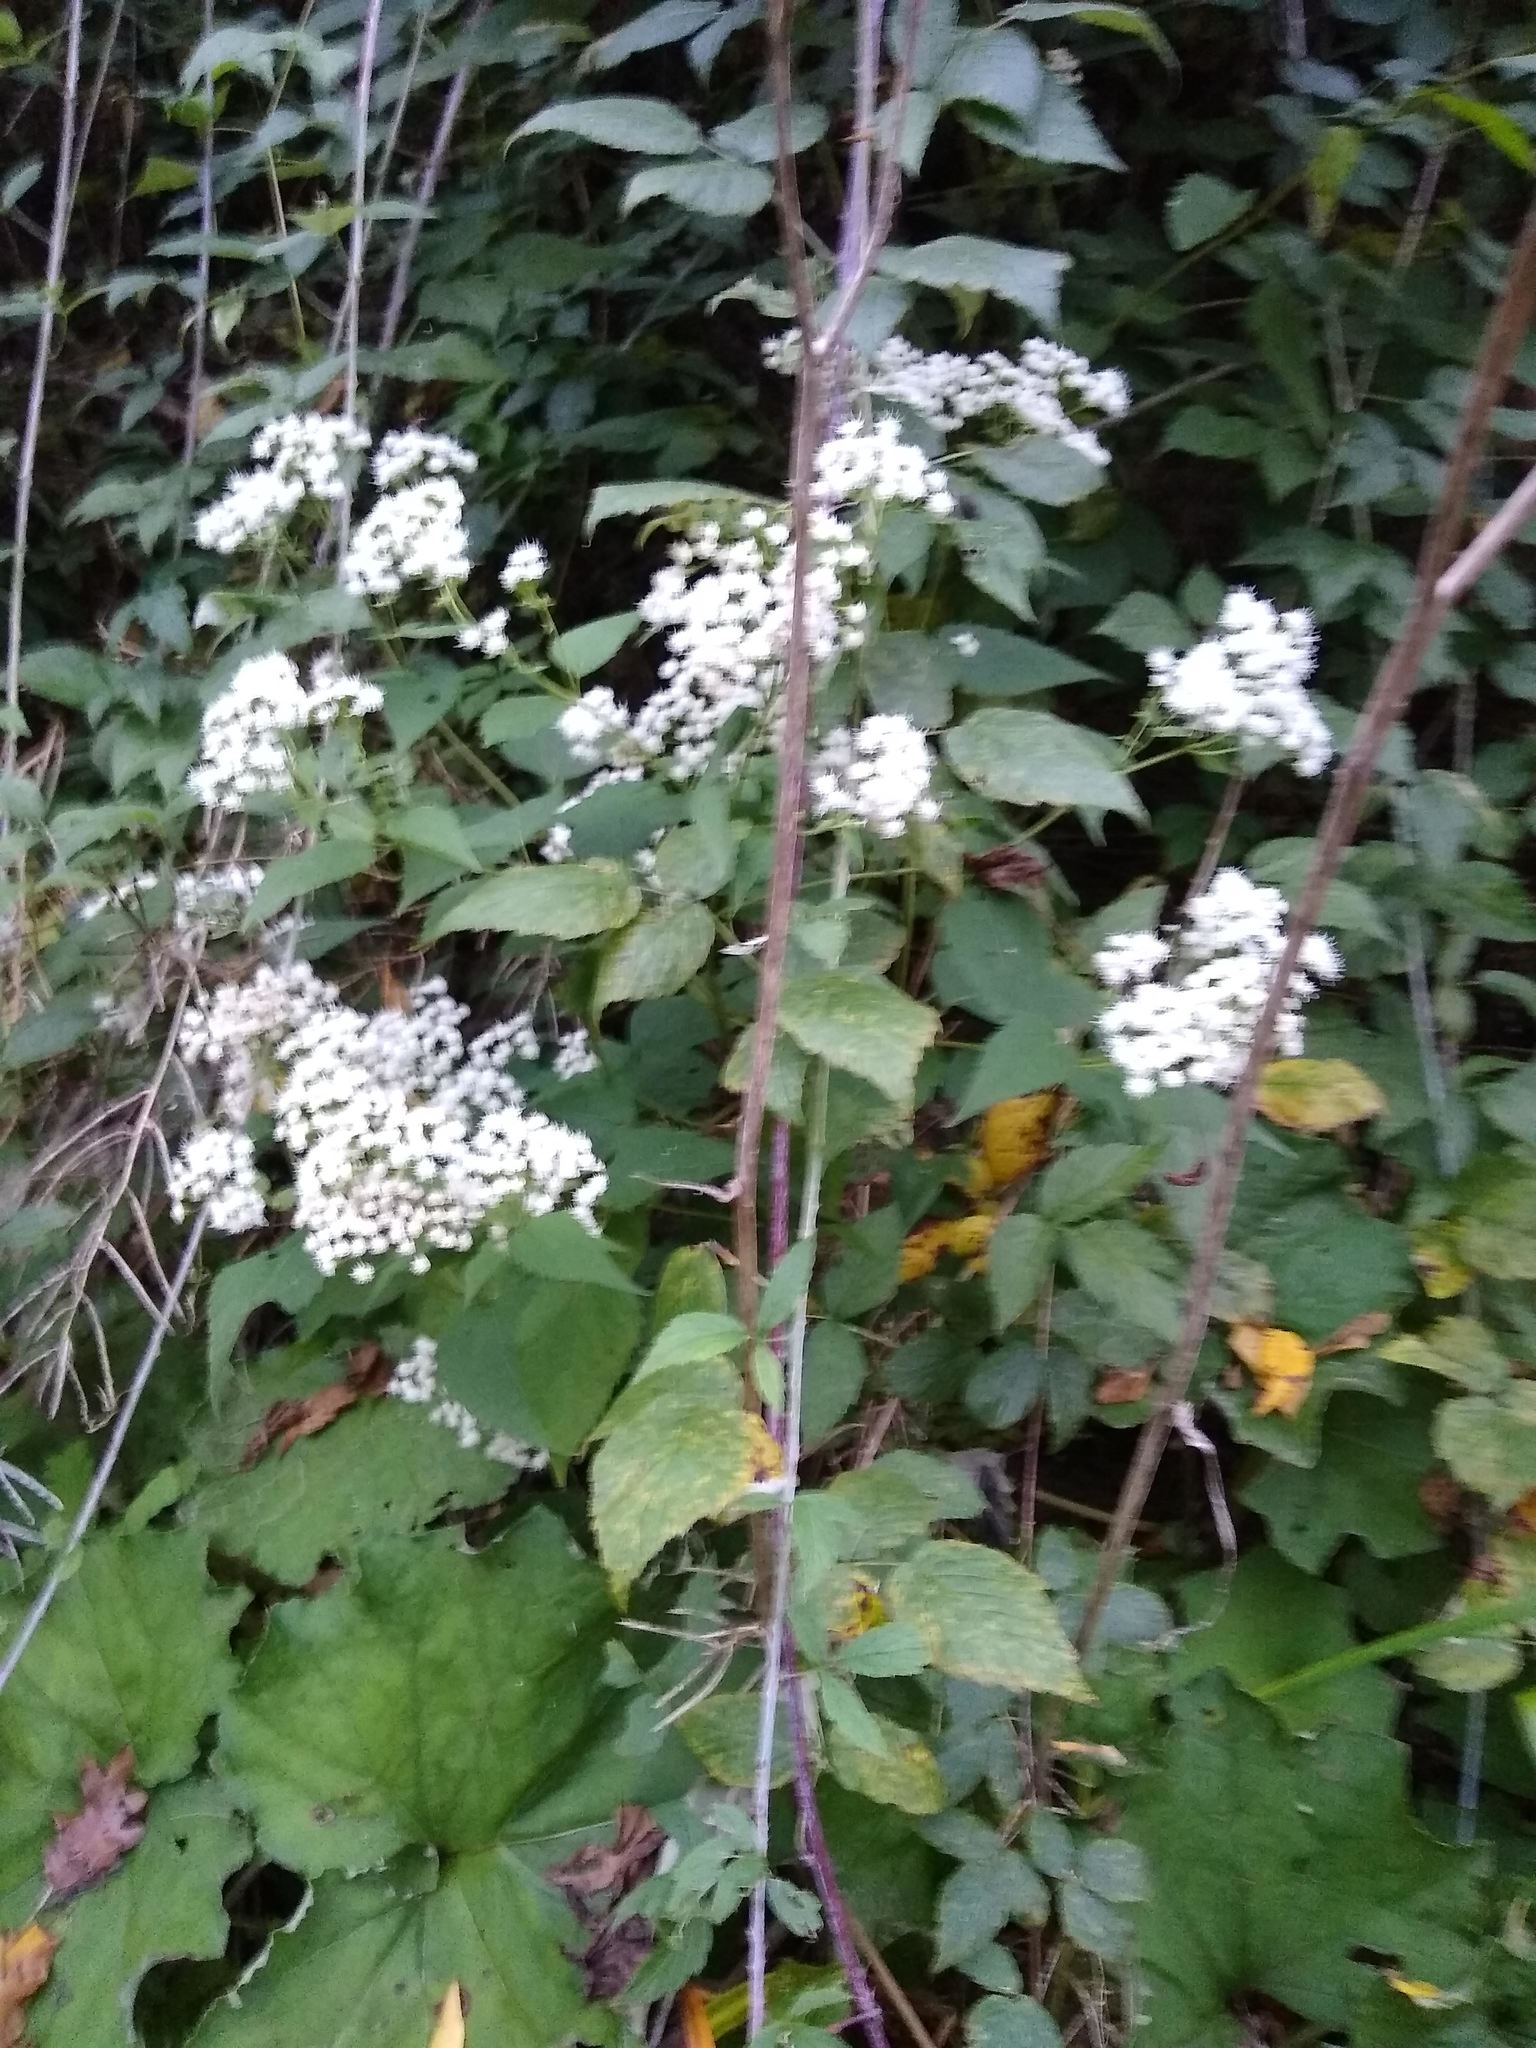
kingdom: Plantae
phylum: Tracheophyta
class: Magnoliopsida
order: Asterales
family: Asteraceae
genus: Ageratina
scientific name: Ageratina altissima
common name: White snakeroot
